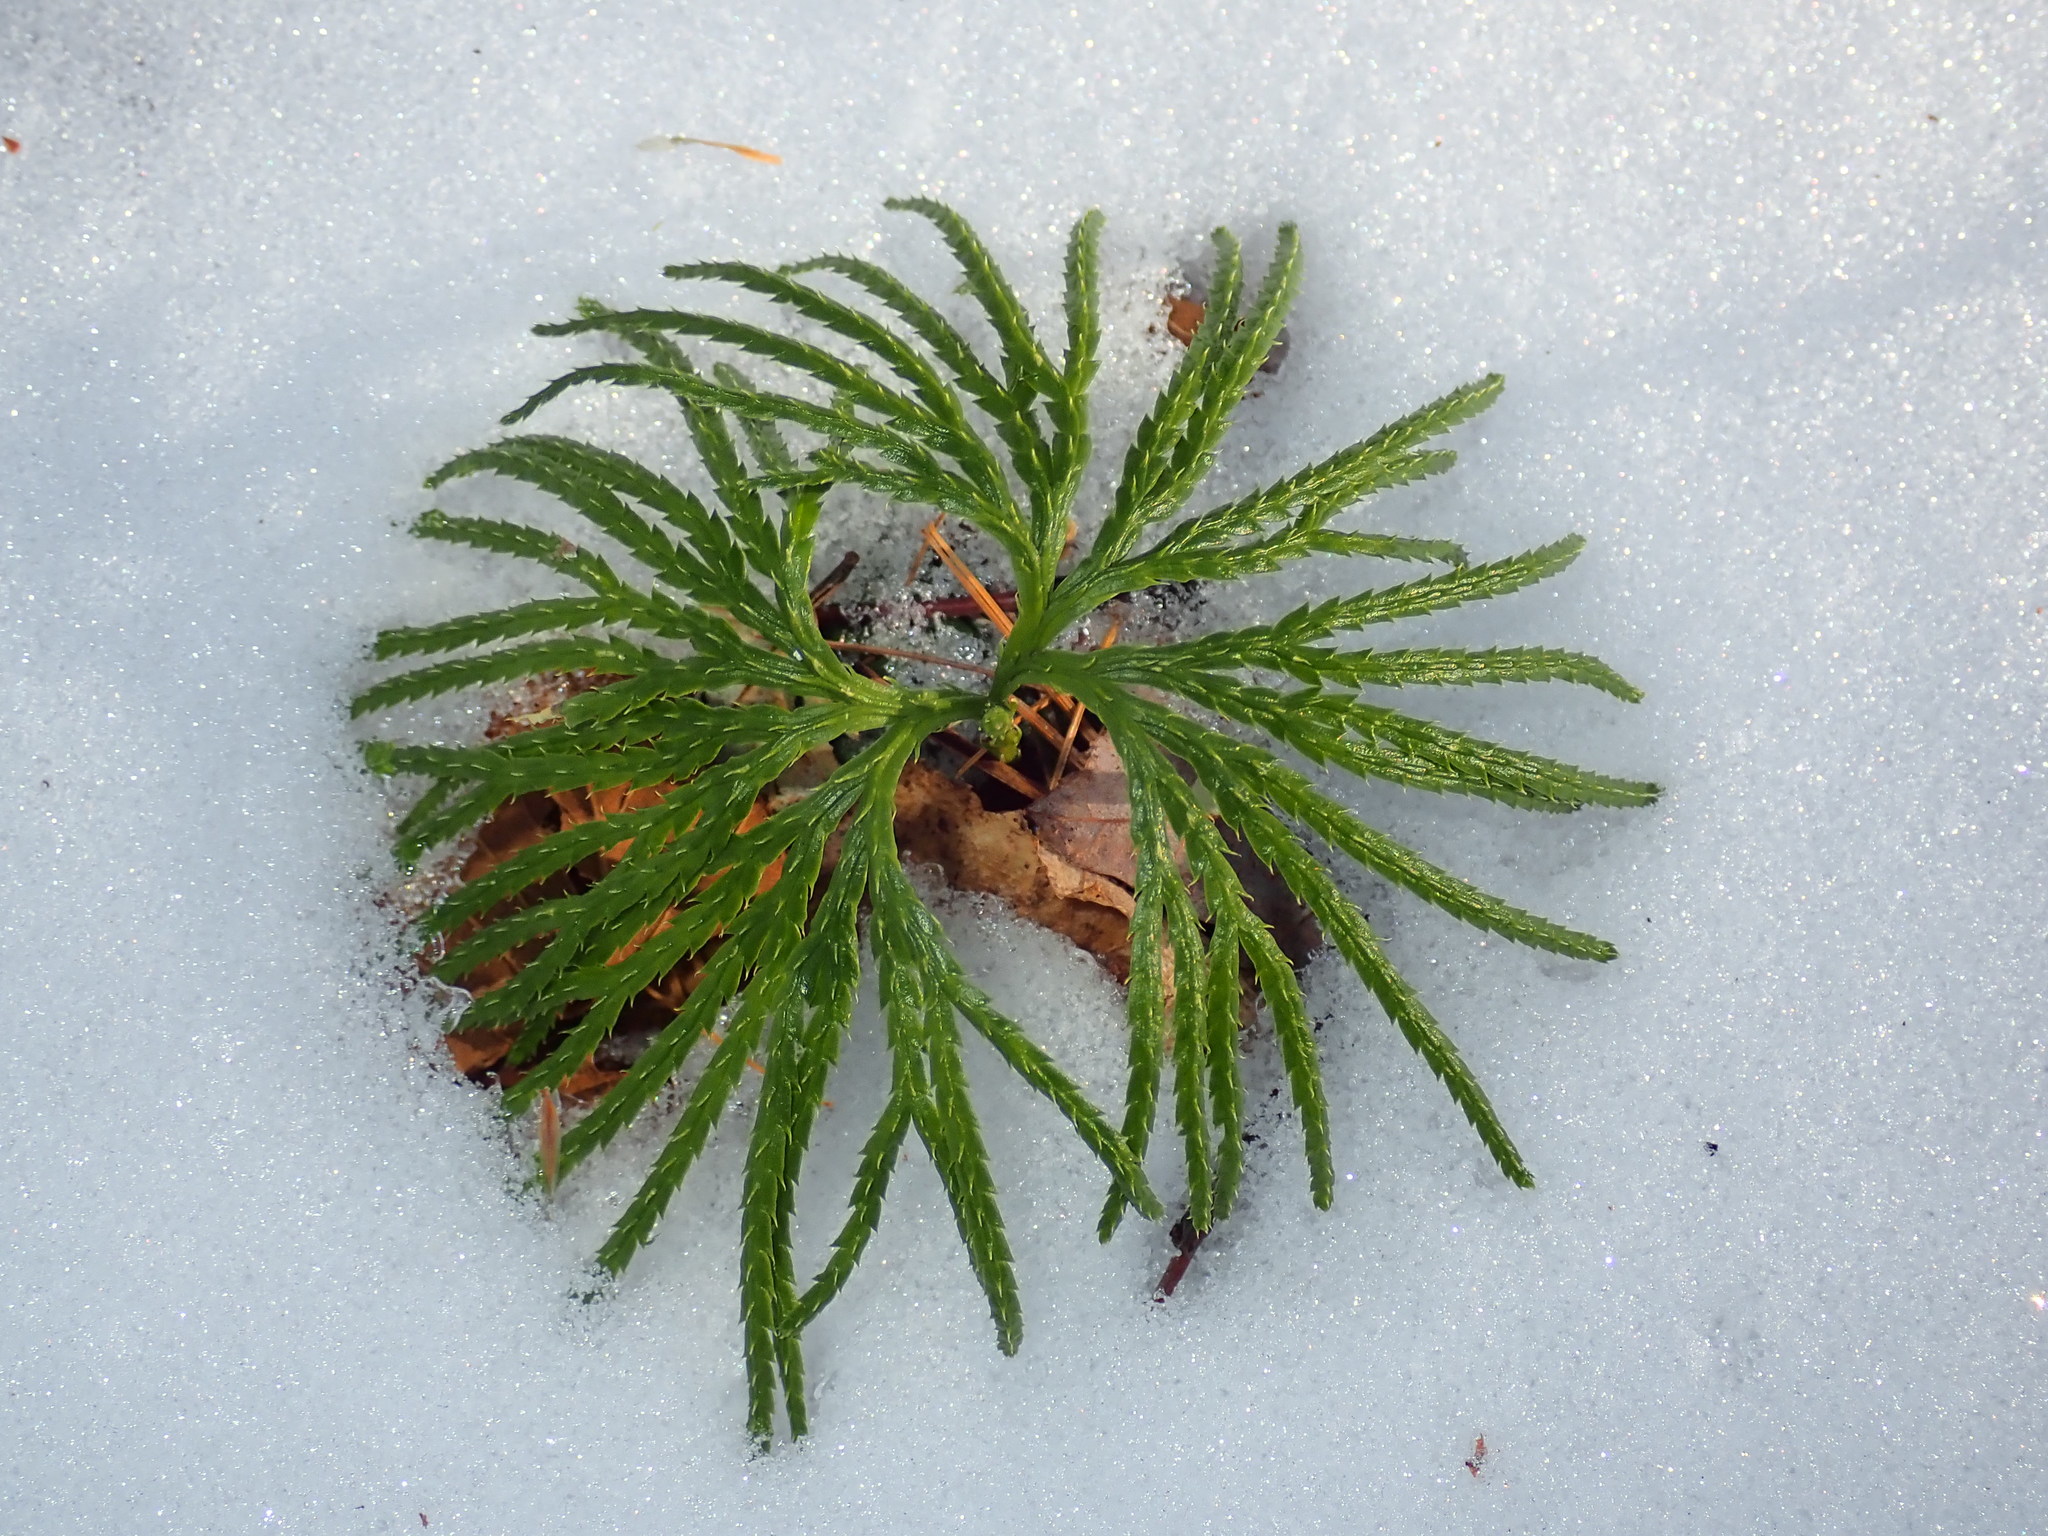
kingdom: Plantae
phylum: Tracheophyta
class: Lycopodiopsida
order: Lycopodiales
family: Lycopodiaceae
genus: Diphasiastrum
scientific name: Diphasiastrum digitatum
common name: Southern running-pine
